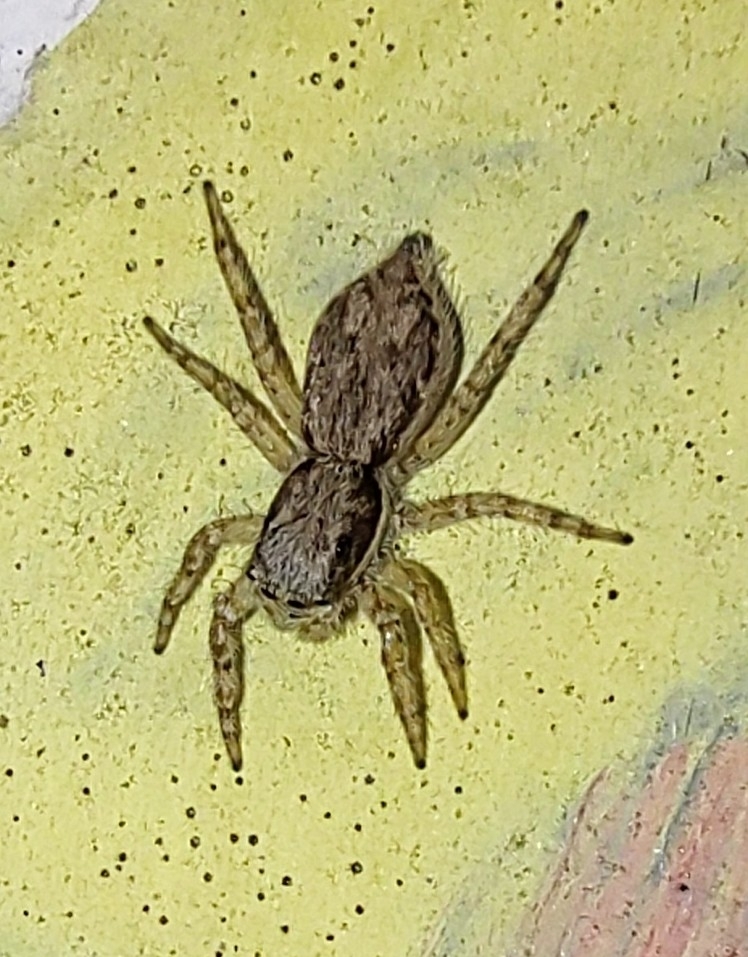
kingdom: Animalia
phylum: Arthropoda
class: Arachnida
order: Araneae
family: Salticidae
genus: Menemerus
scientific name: Menemerus bivittatus
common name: Gray wall jumper
